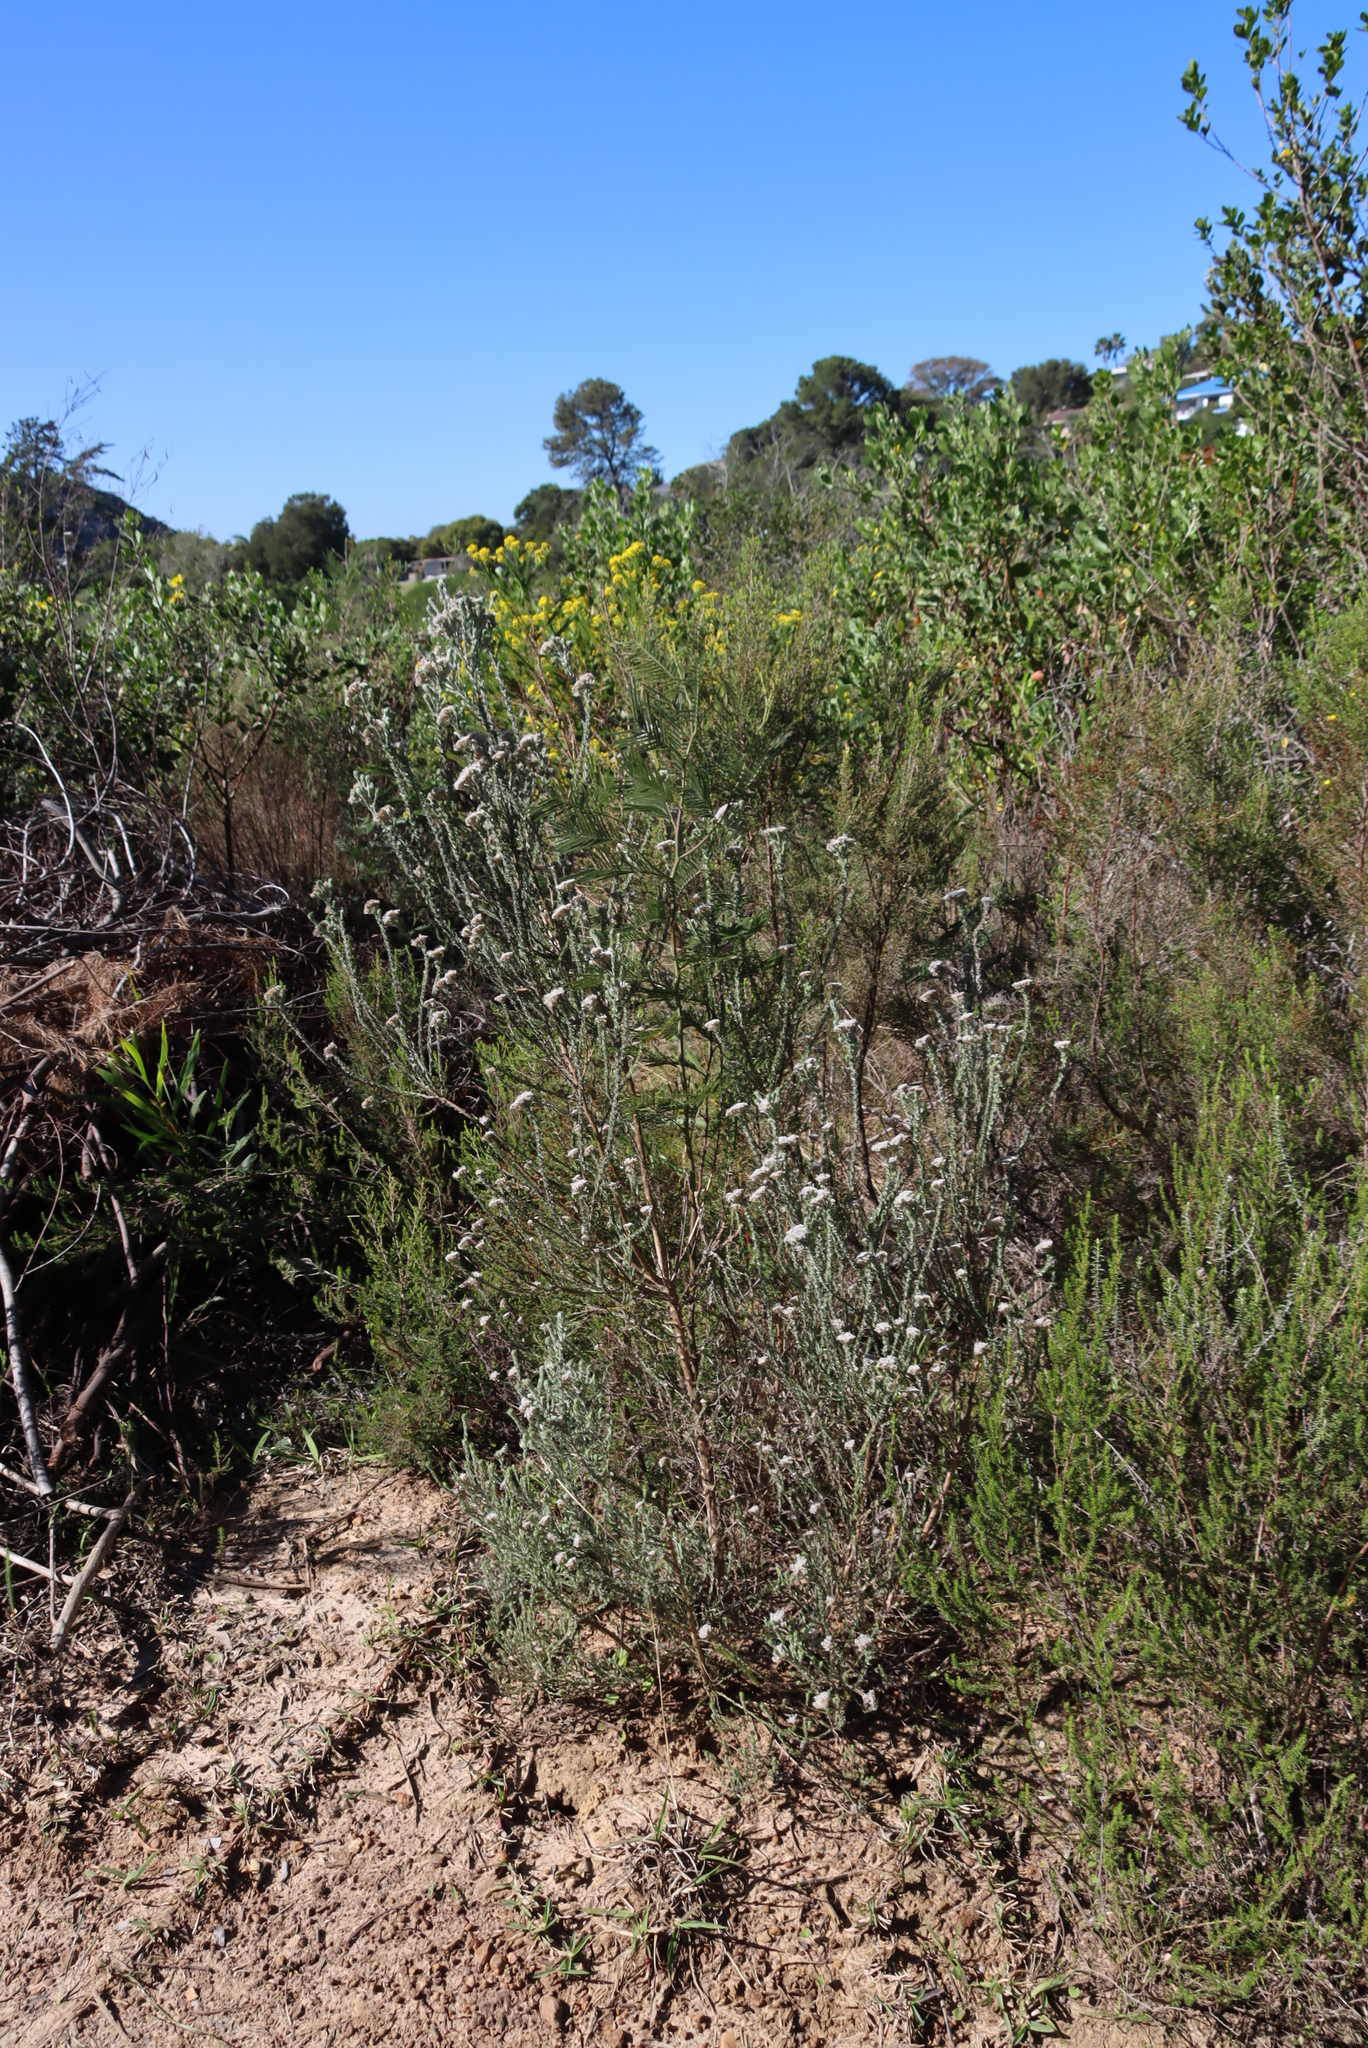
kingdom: Plantae
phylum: Tracheophyta
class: Magnoliopsida
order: Asterales
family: Asteraceae
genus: Metalasia
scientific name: Metalasia pungens
